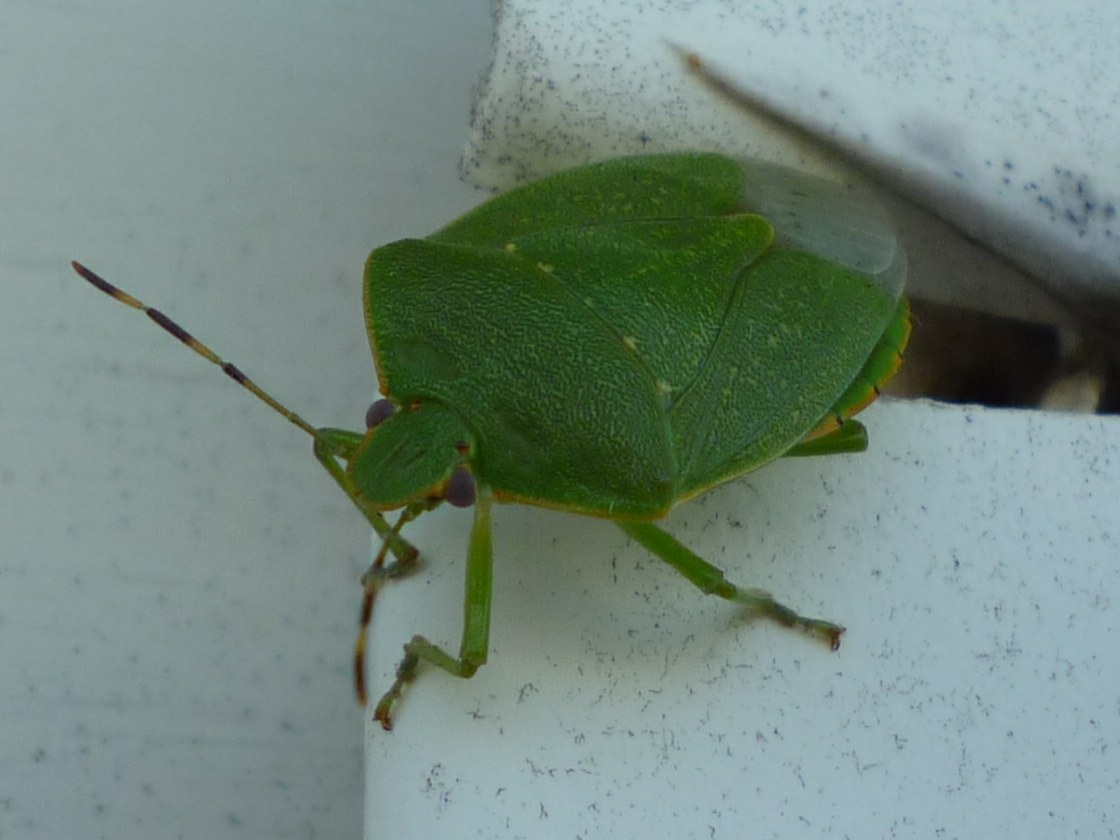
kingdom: Animalia
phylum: Arthropoda
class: Insecta
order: Hemiptera
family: Pentatomidae
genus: Chinavia
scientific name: Chinavia hilaris
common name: Green stink bug
